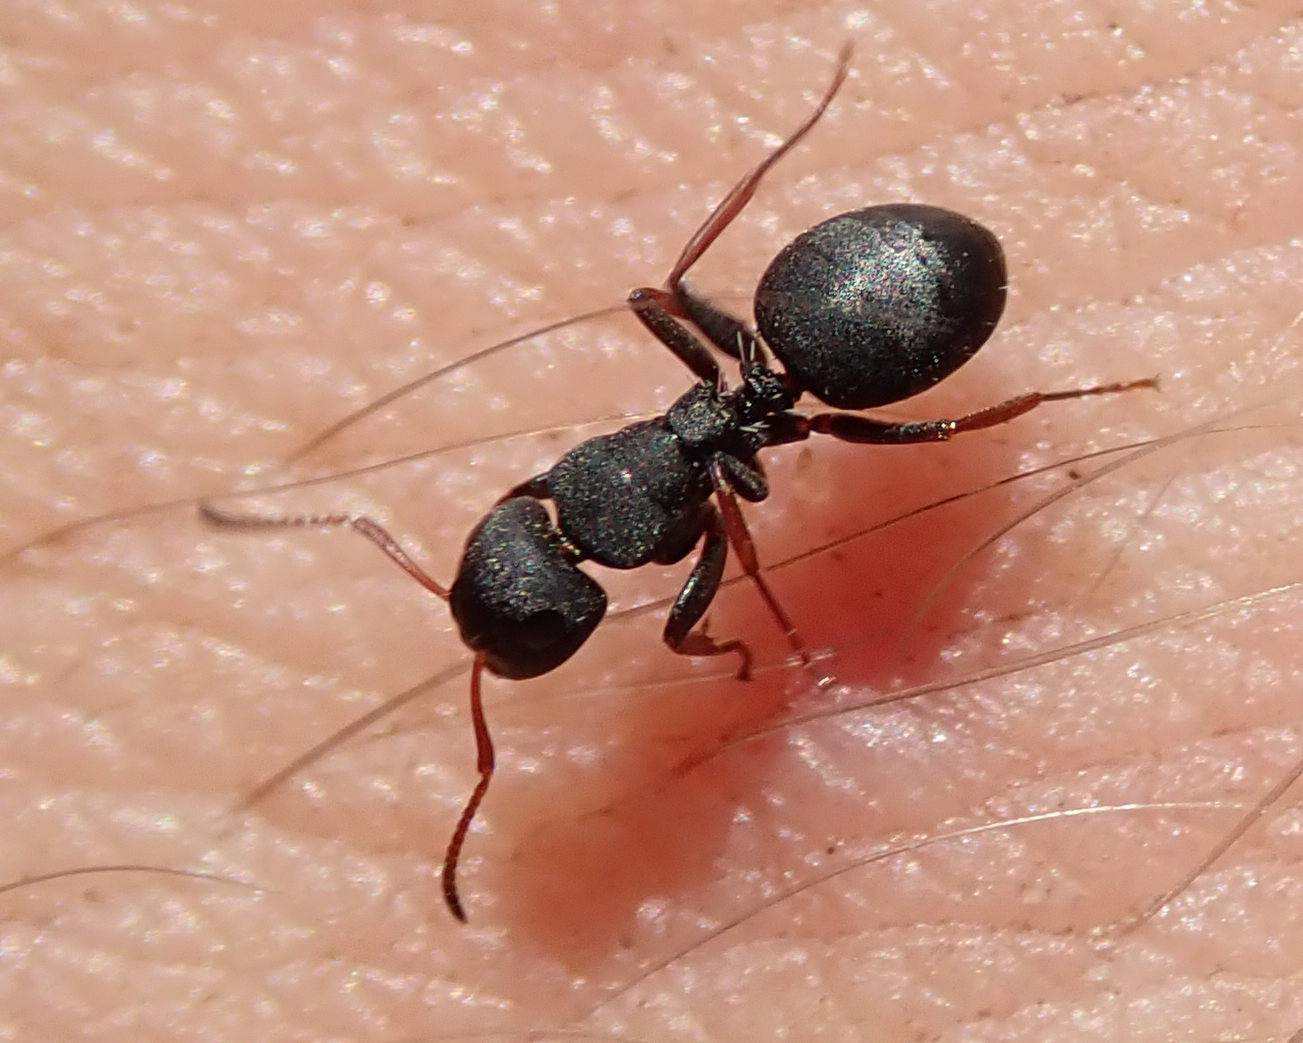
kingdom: Animalia
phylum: Arthropoda
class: Insecta
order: Hymenoptera
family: Formicidae
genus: Camponotus
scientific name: Camponotus braunsi
